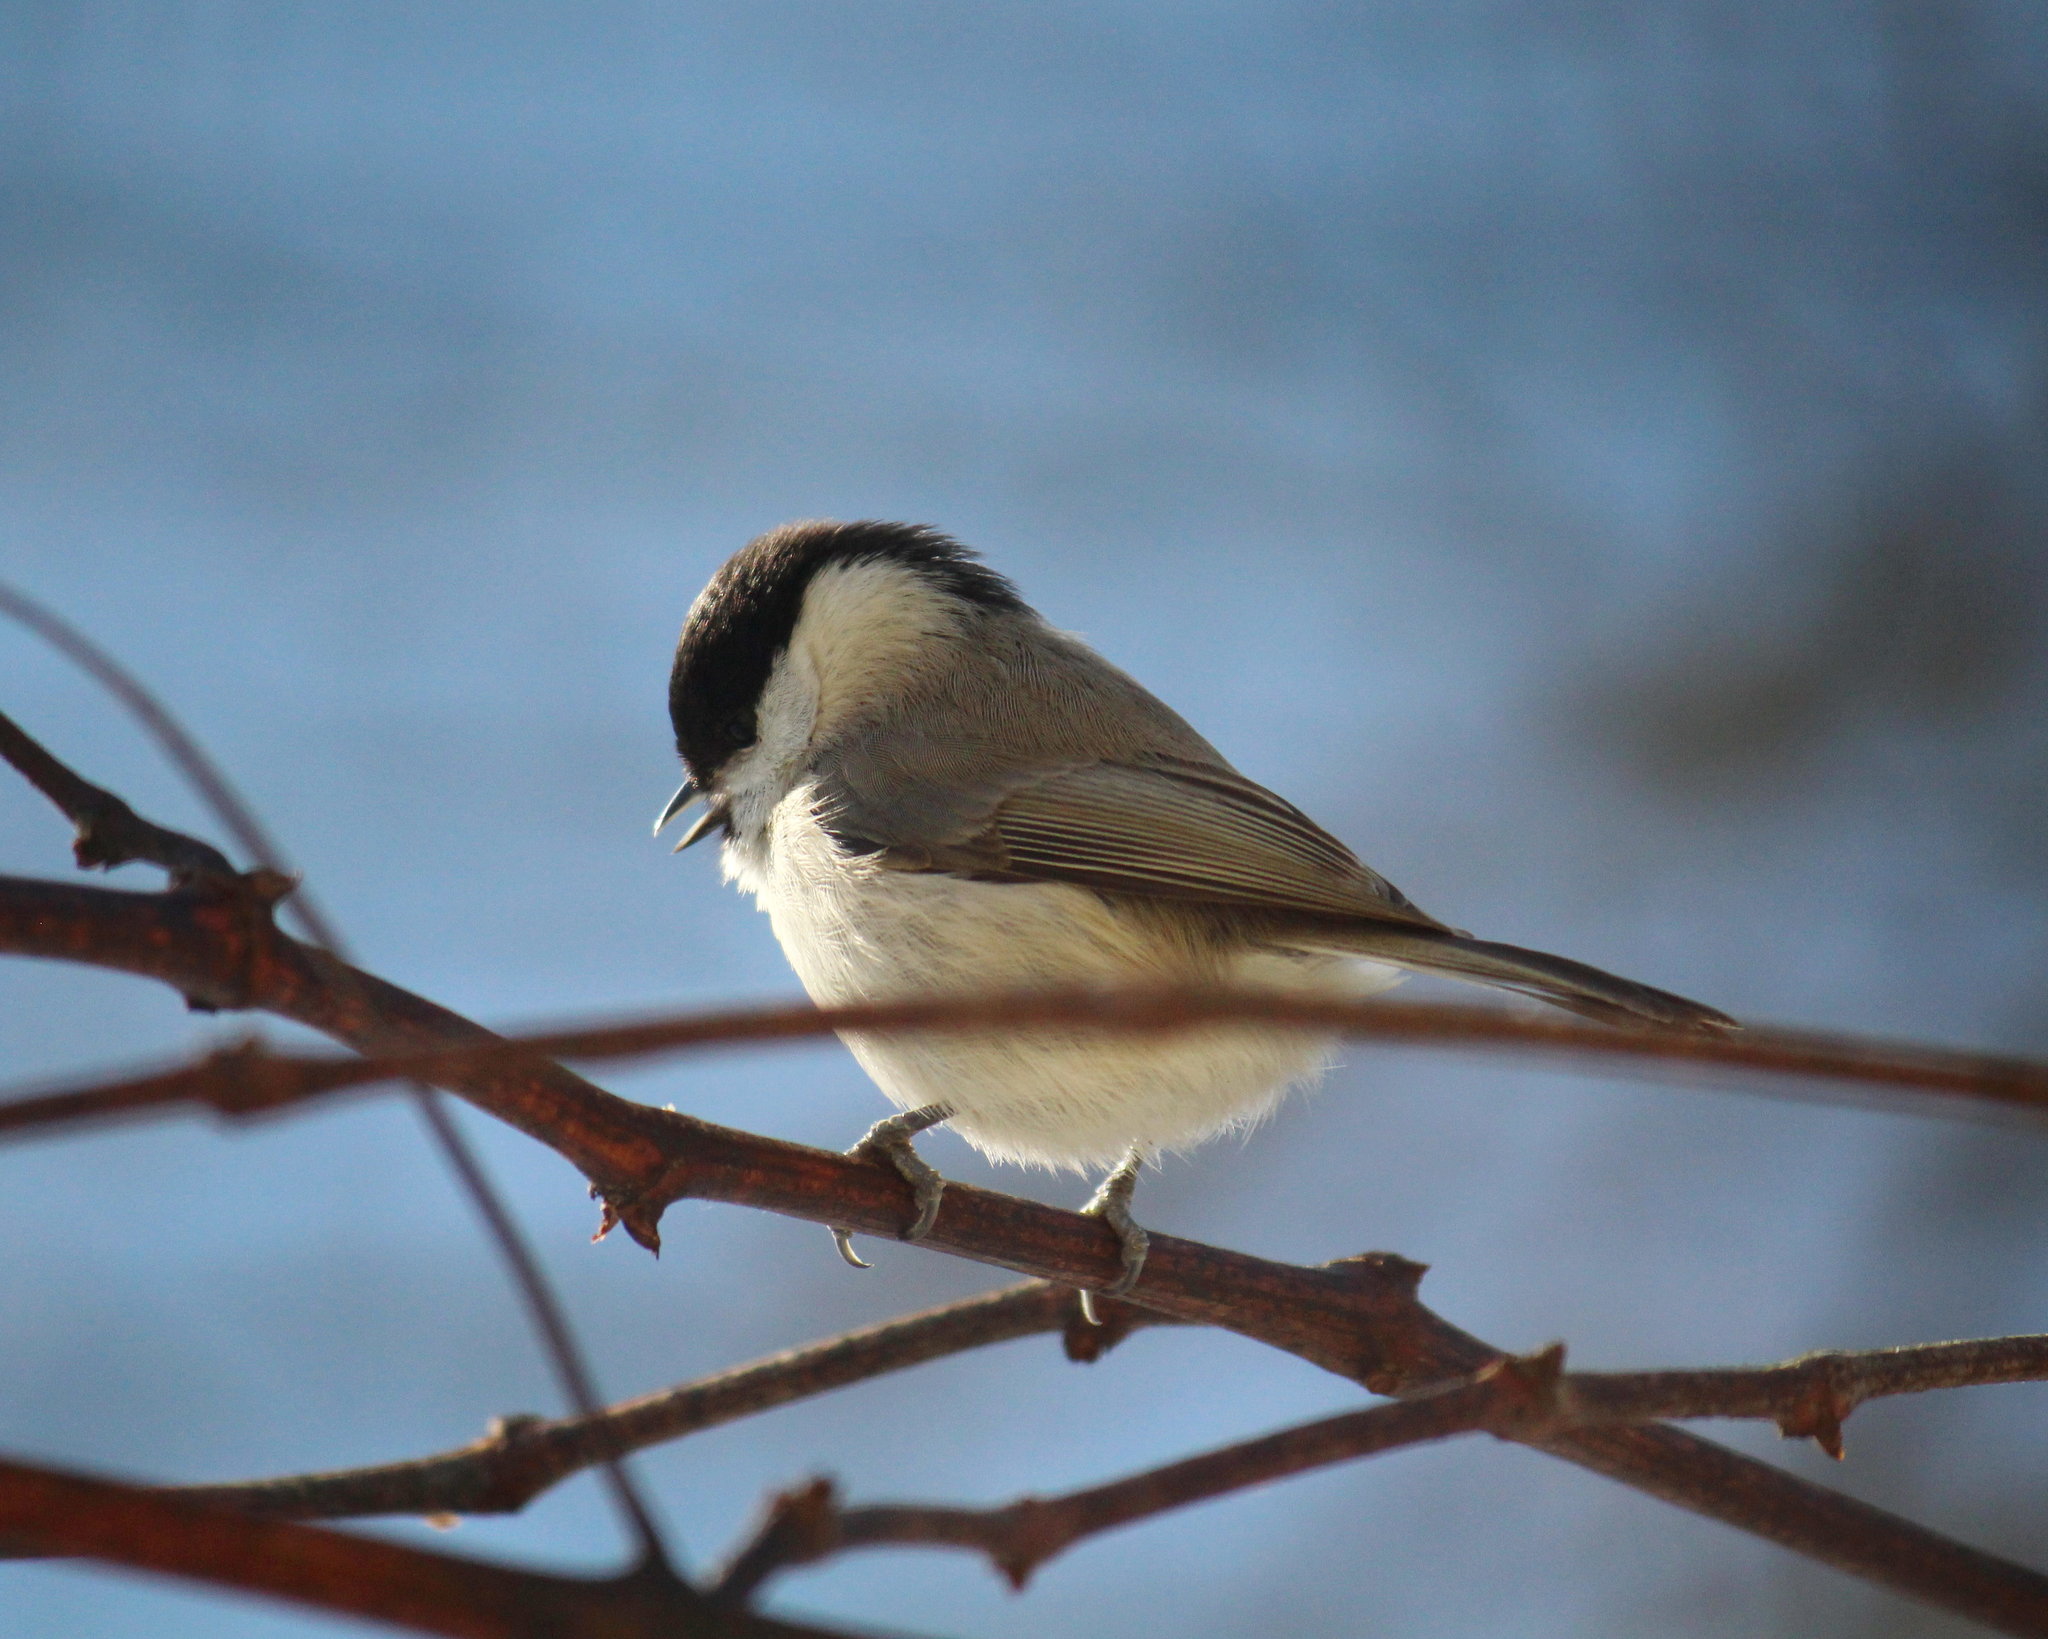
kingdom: Animalia
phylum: Chordata
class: Aves
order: Passeriformes
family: Paridae
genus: Poecile
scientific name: Poecile palustris
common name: Marsh tit
